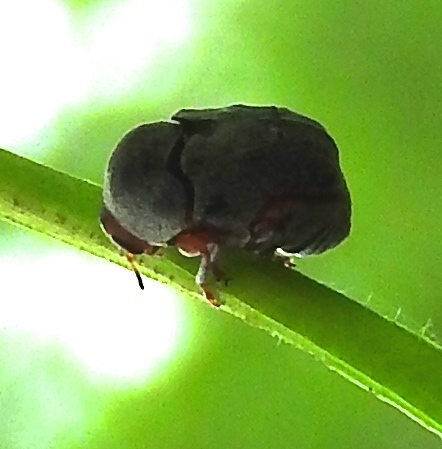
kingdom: Animalia
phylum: Arthropoda
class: Insecta
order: Coleoptera
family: Chrysomelidae
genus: Chlamisus
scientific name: Chlamisus maculipes
